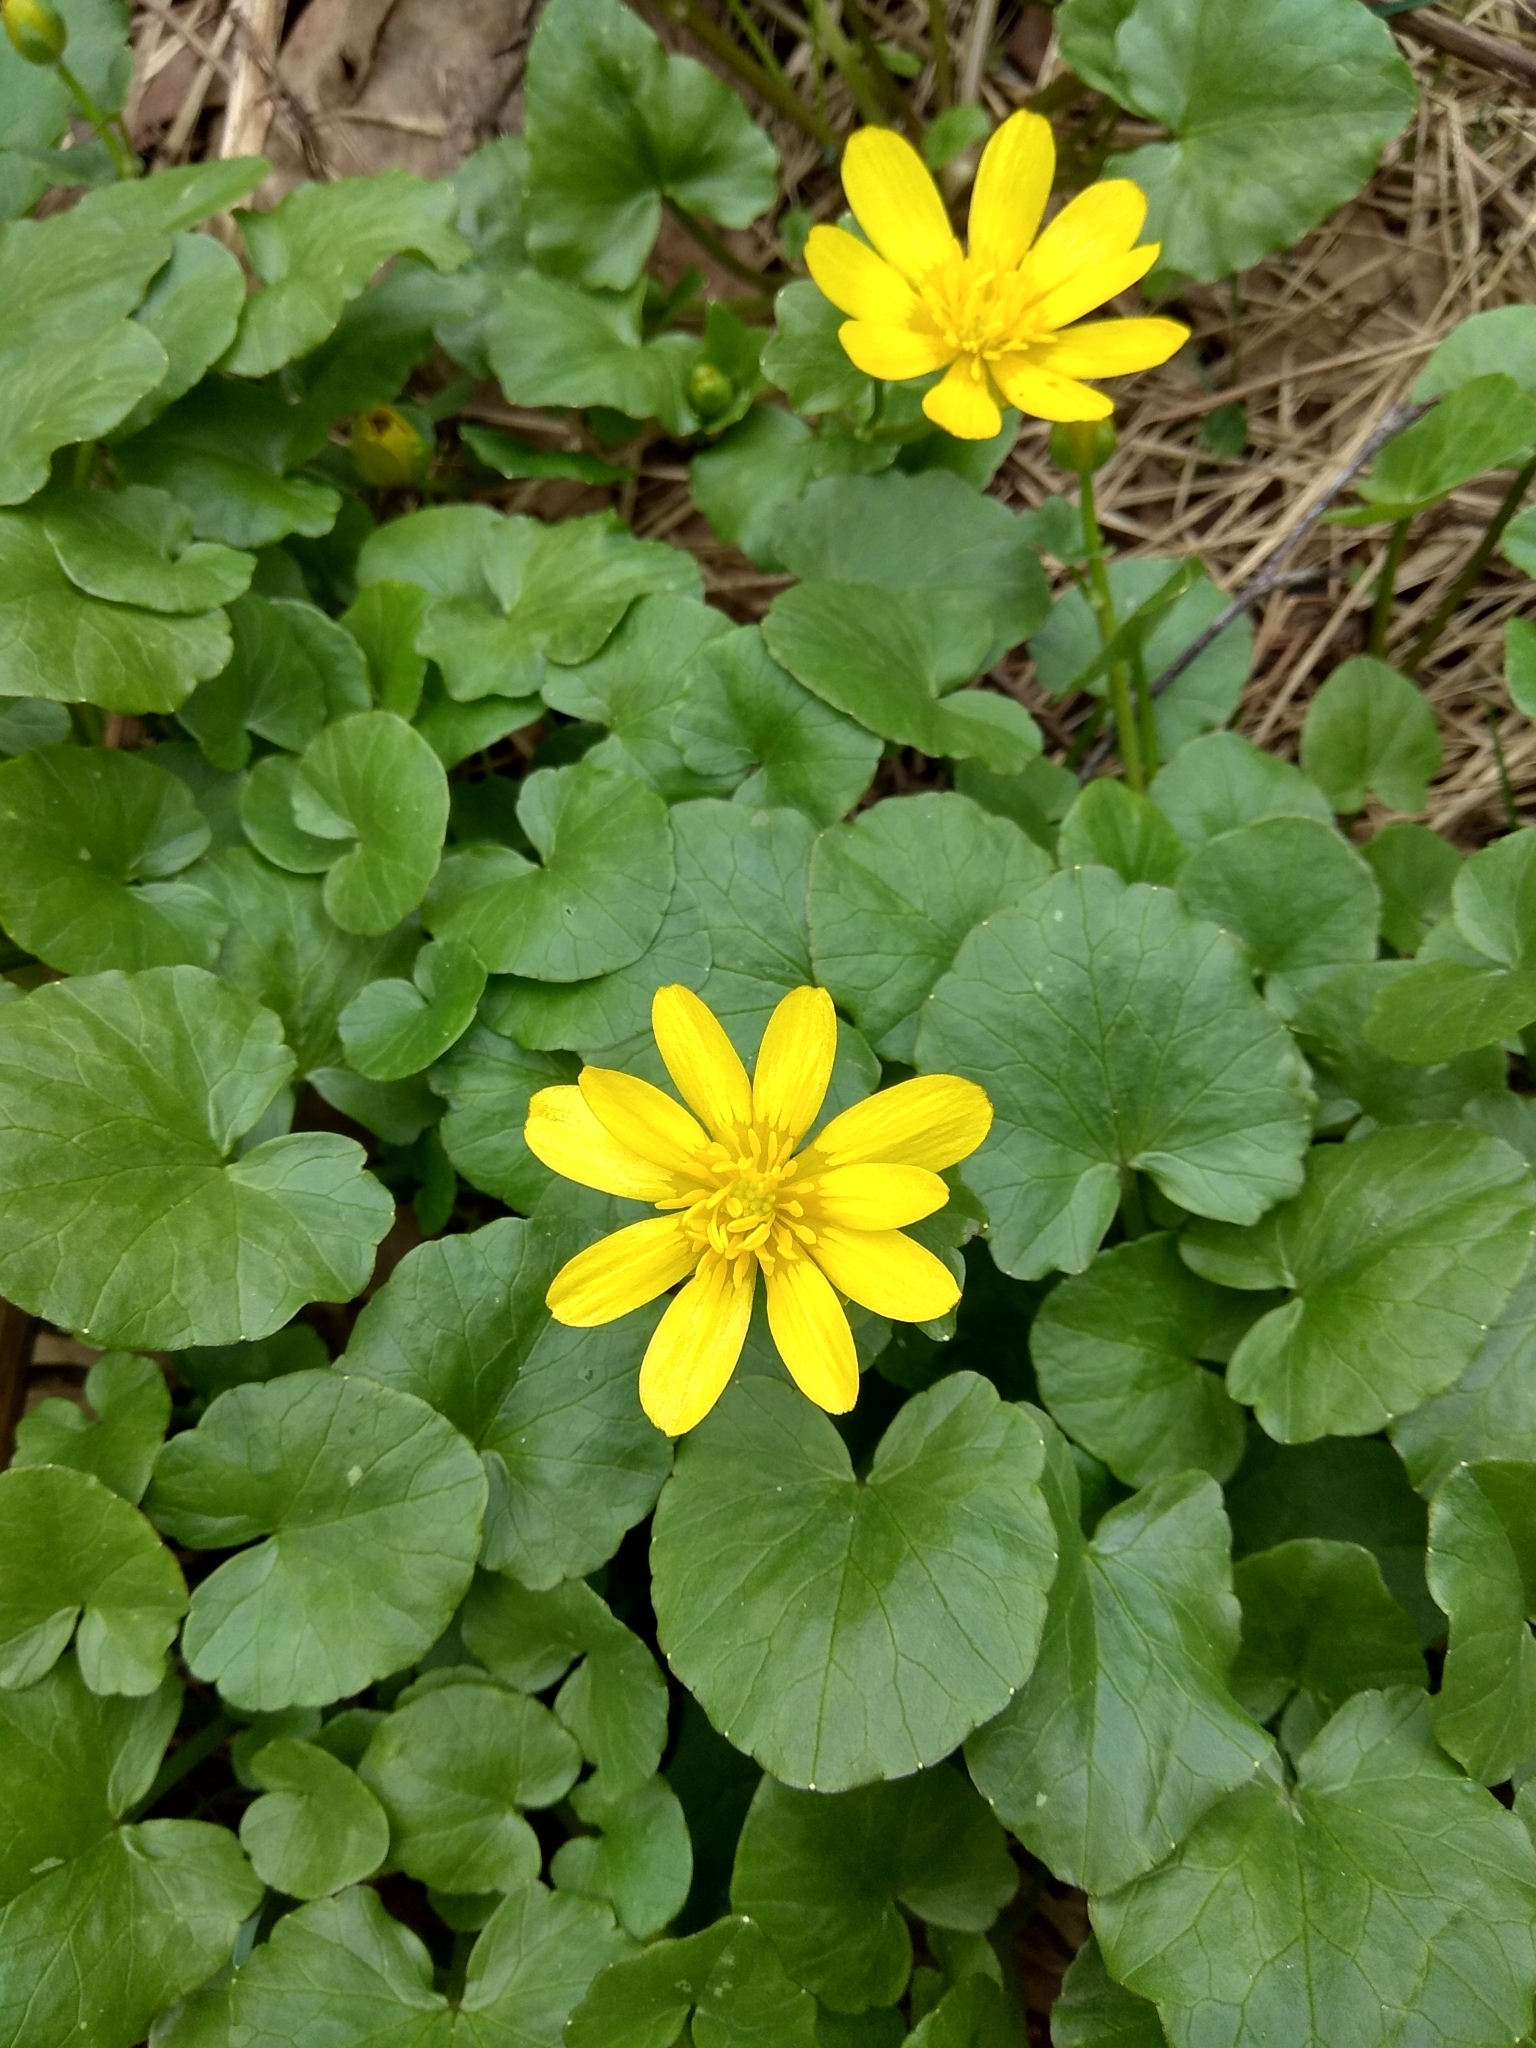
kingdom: Plantae
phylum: Tracheophyta
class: Magnoliopsida
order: Ranunculales
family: Ranunculaceae
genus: Ficaria
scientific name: Ficaria verna
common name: Lesser celandine
